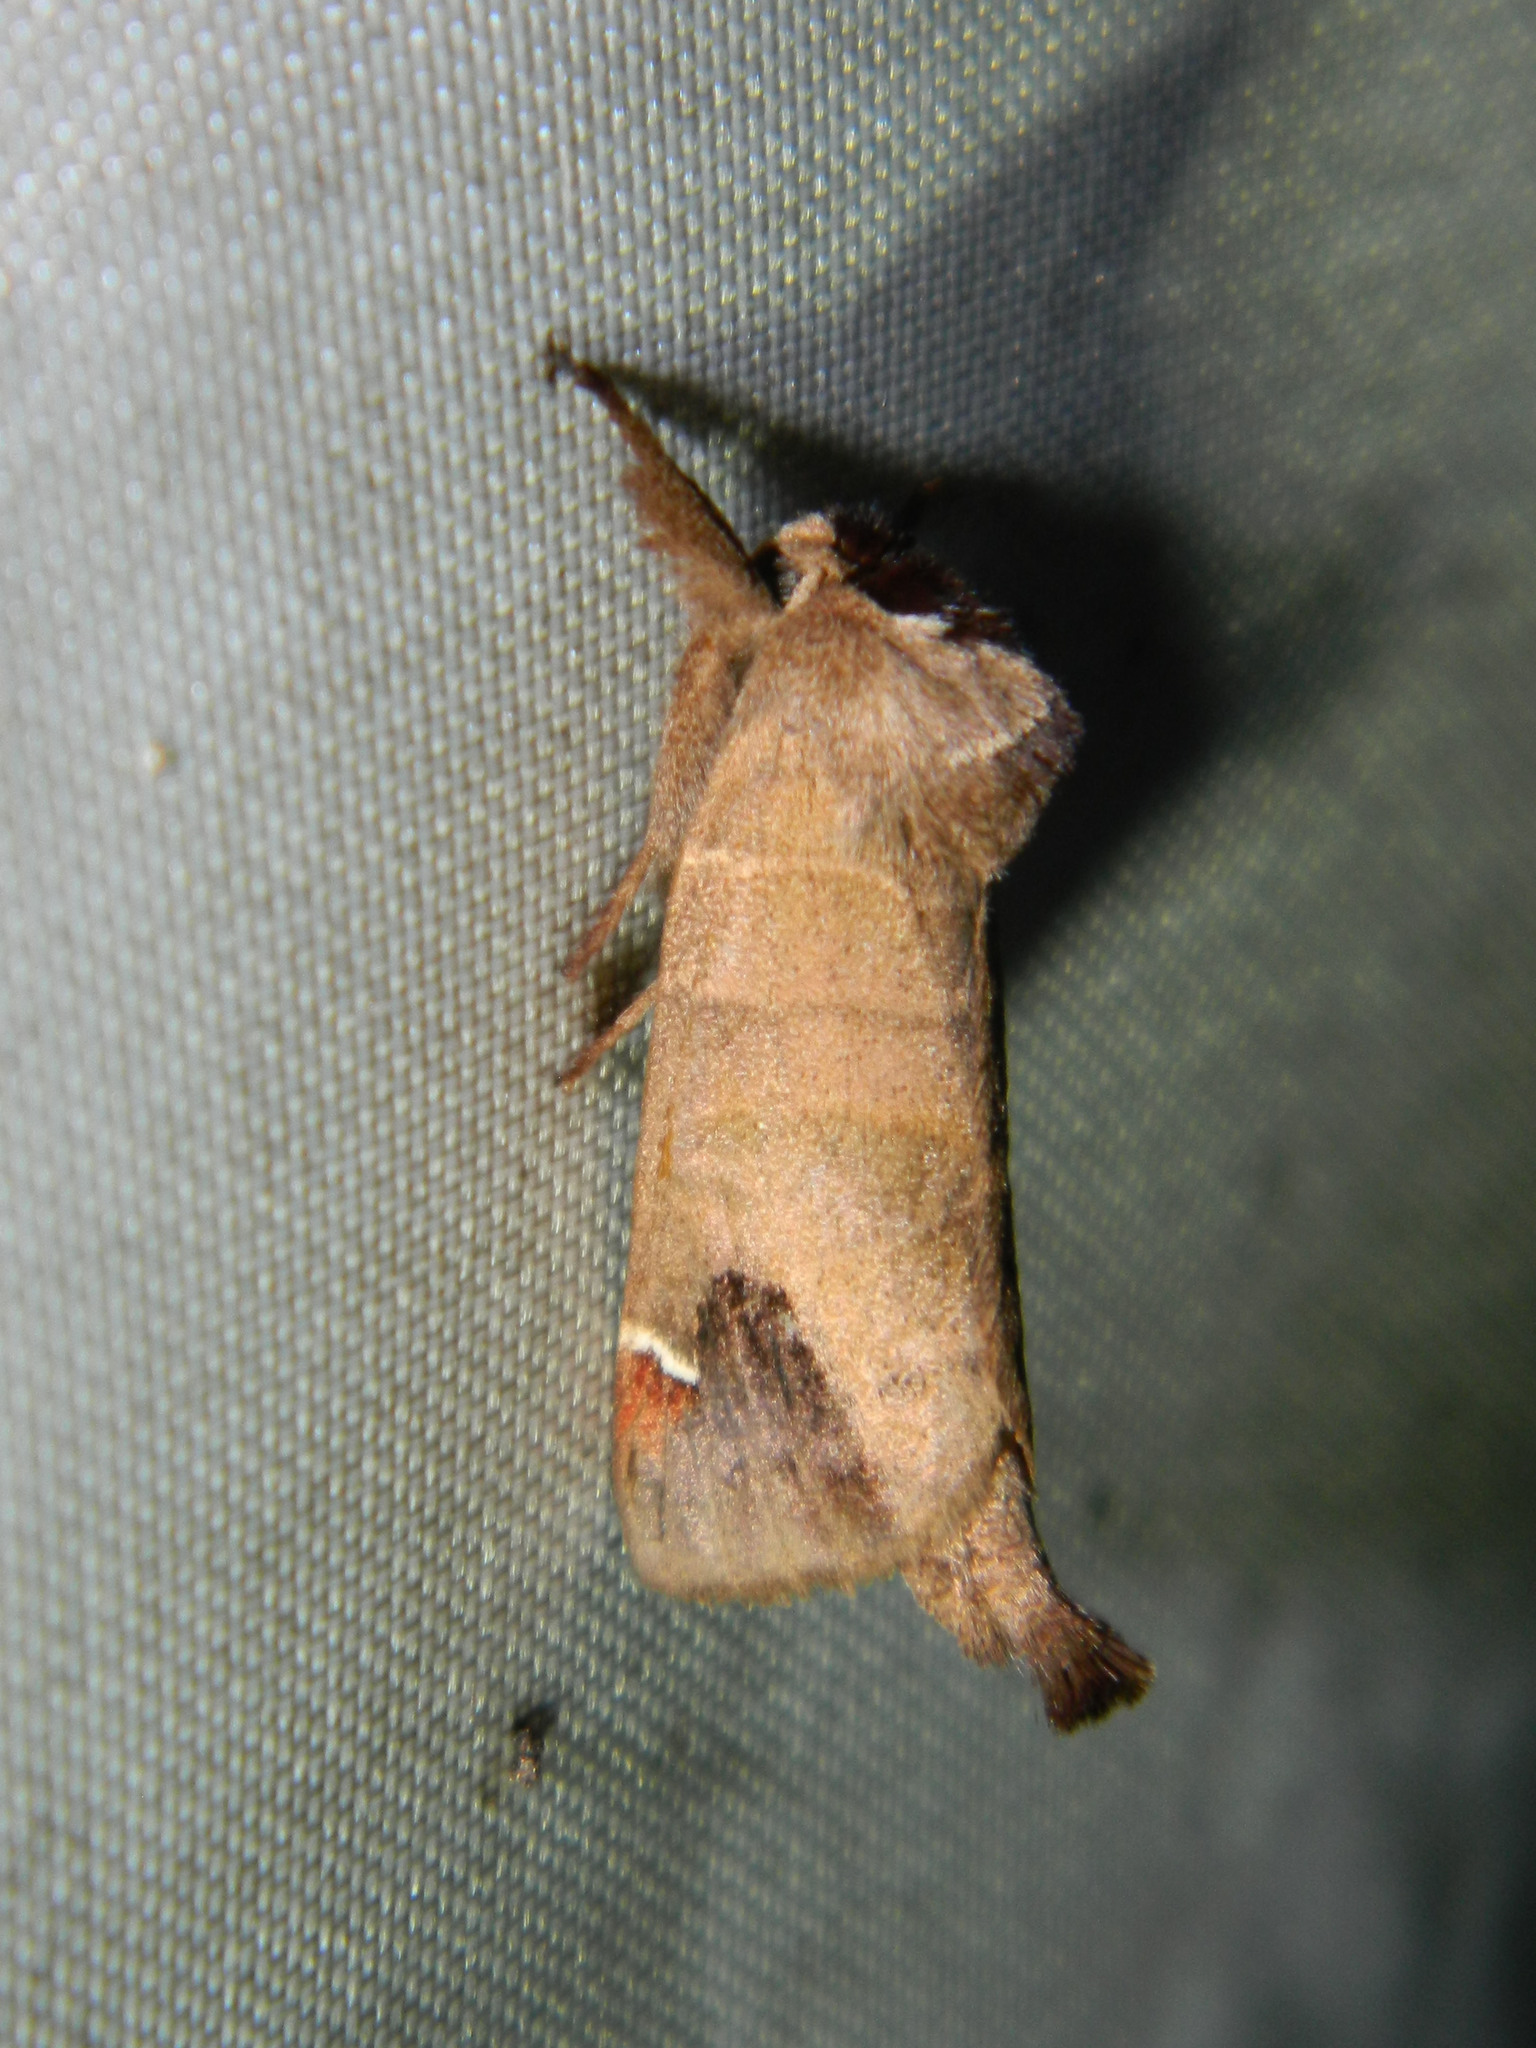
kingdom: Animalia
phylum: Arthropoda
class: Insecta
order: Lepidoptera
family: Notodontidae
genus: Clostera
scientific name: Clostera albosigma
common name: Sigmoid prominent
